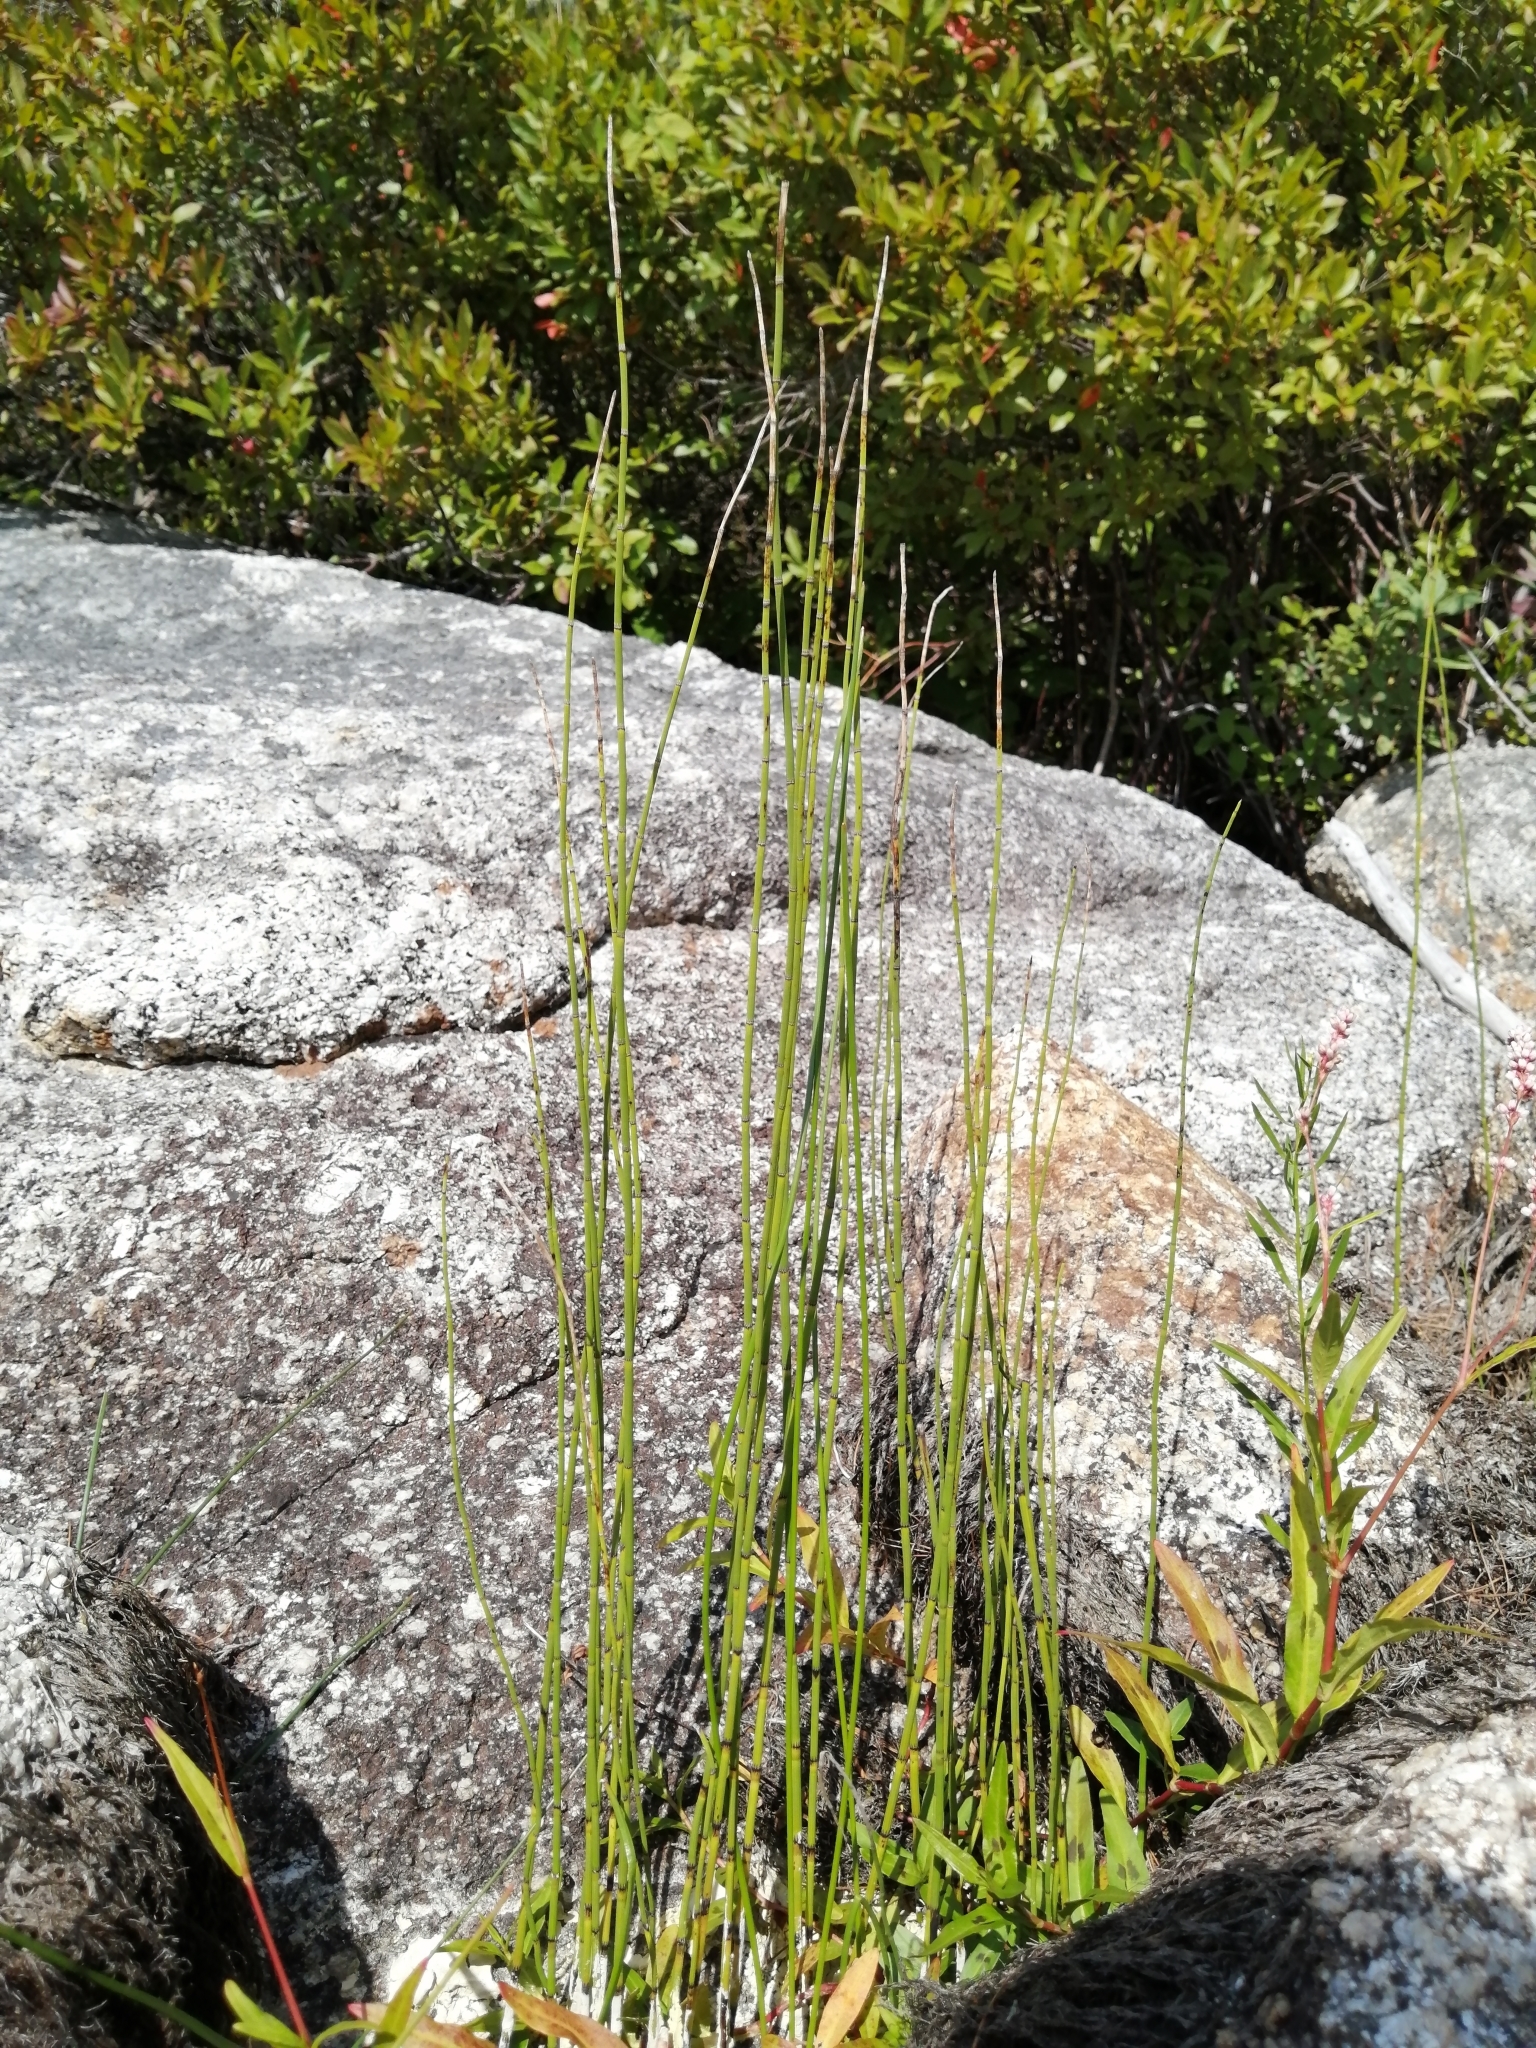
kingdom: Plantae
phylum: Tracheophyta
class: Polypodiopsida
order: Equisetales
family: Equisetaceae
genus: Equisetum
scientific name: Equisetum fluviatile
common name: Water horsetail
